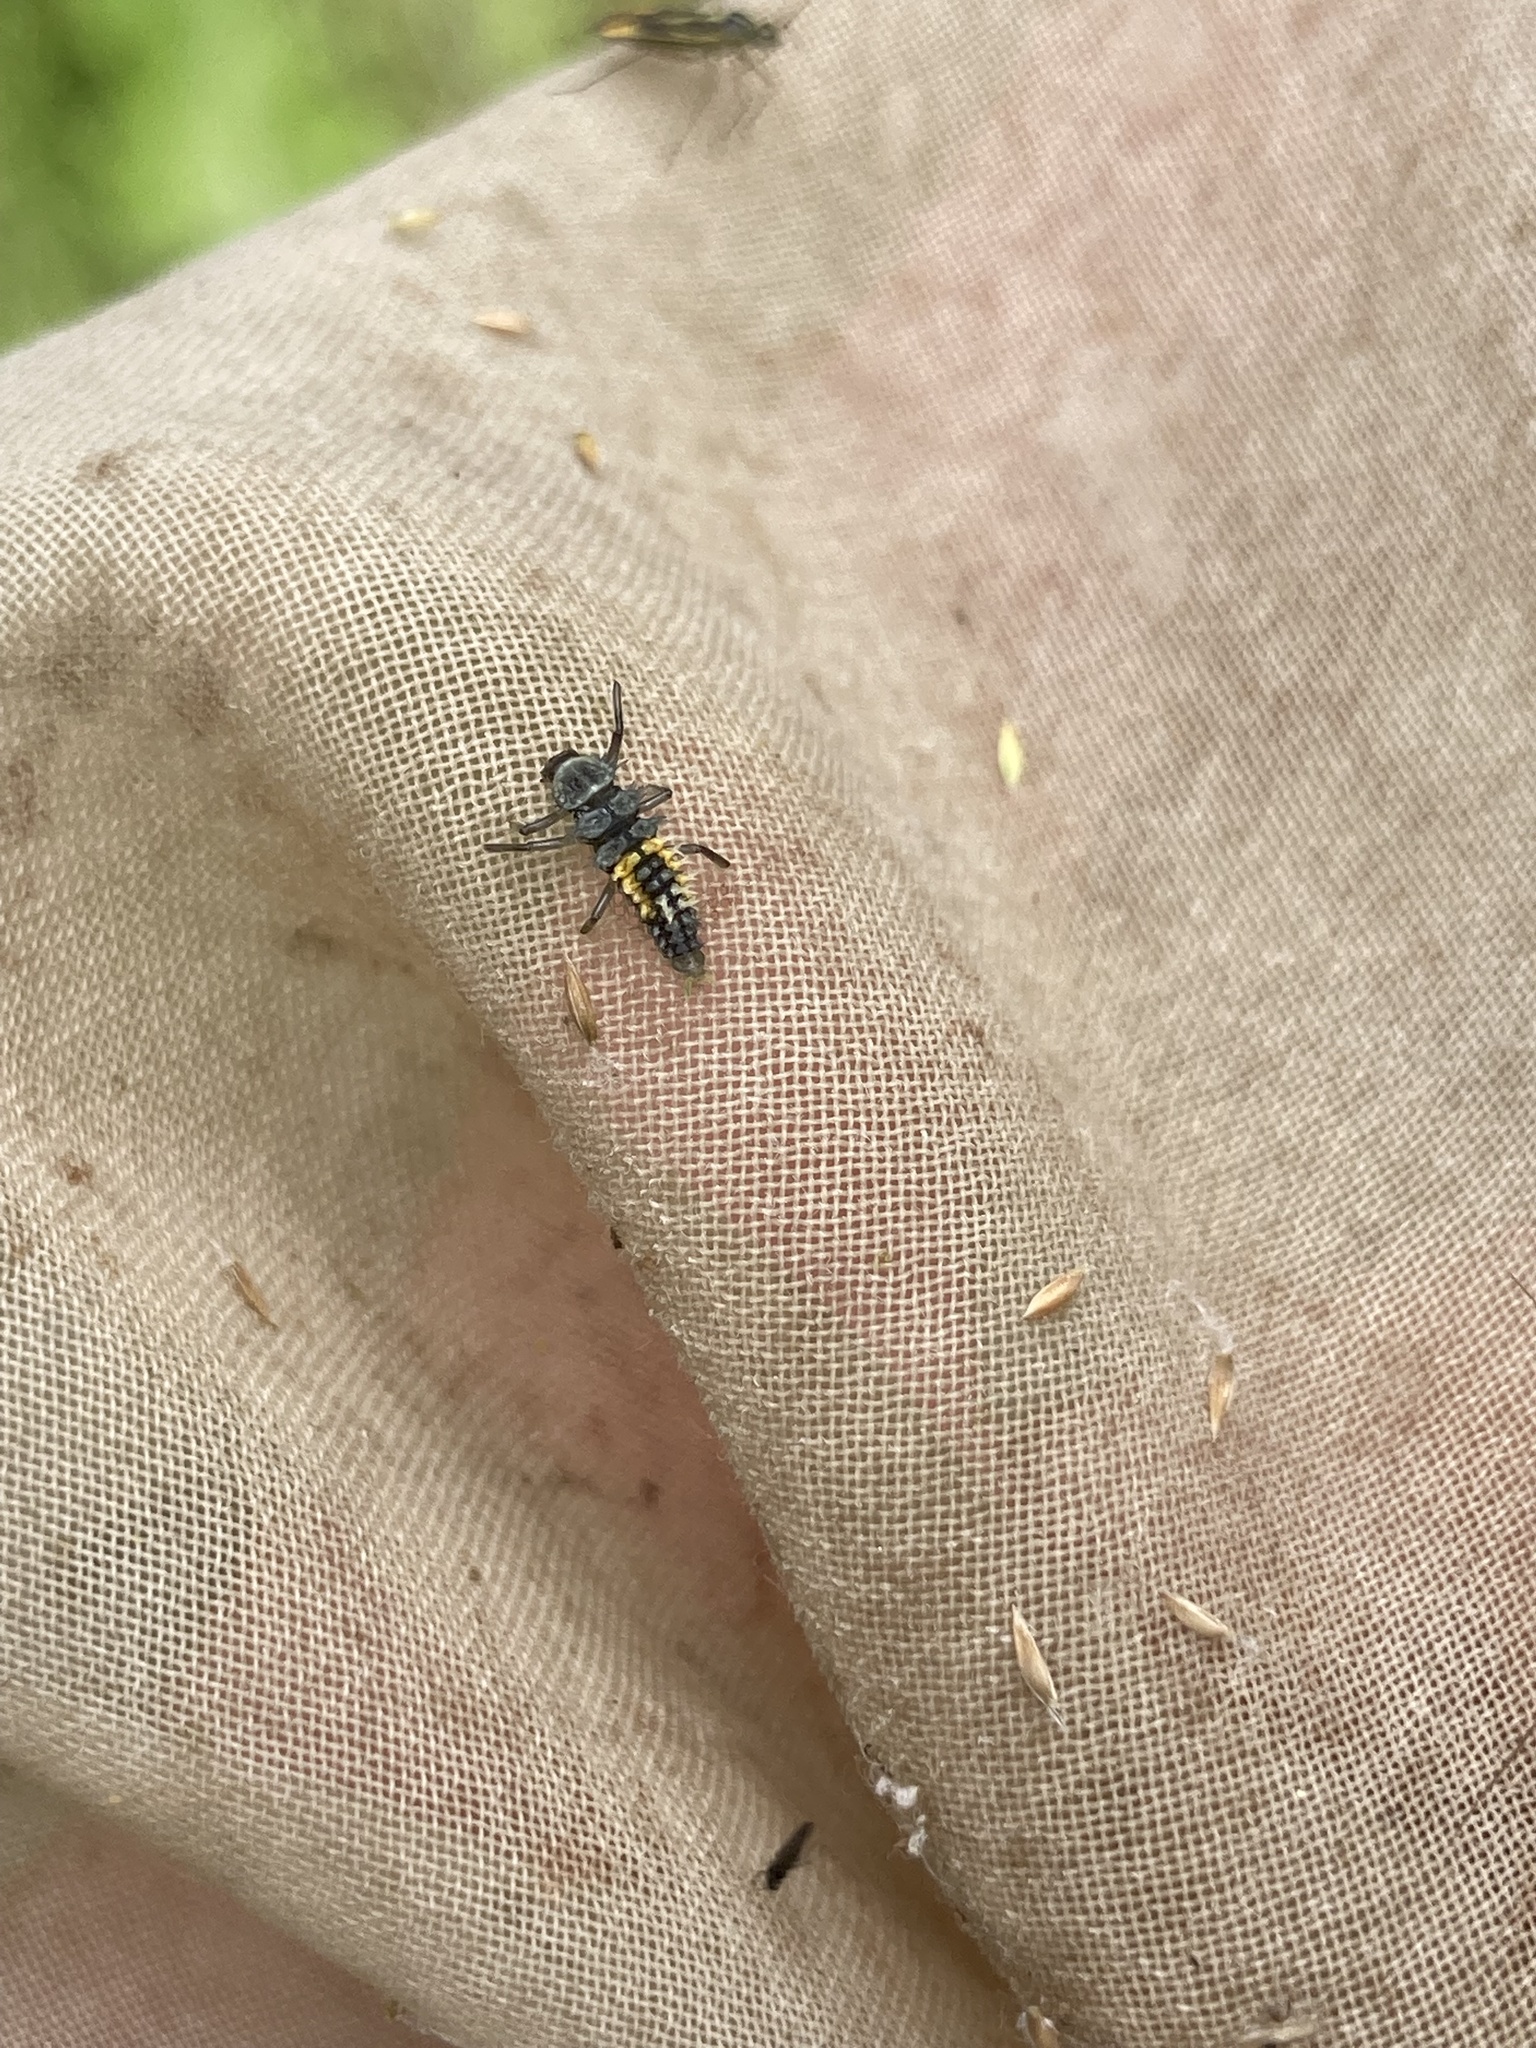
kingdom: Animalia
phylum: Arthropoda
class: Insecta
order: Coleoptera
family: Coccinellidae
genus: Harmonia
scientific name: Harmonia axyridis
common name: Harlequin ladybird
